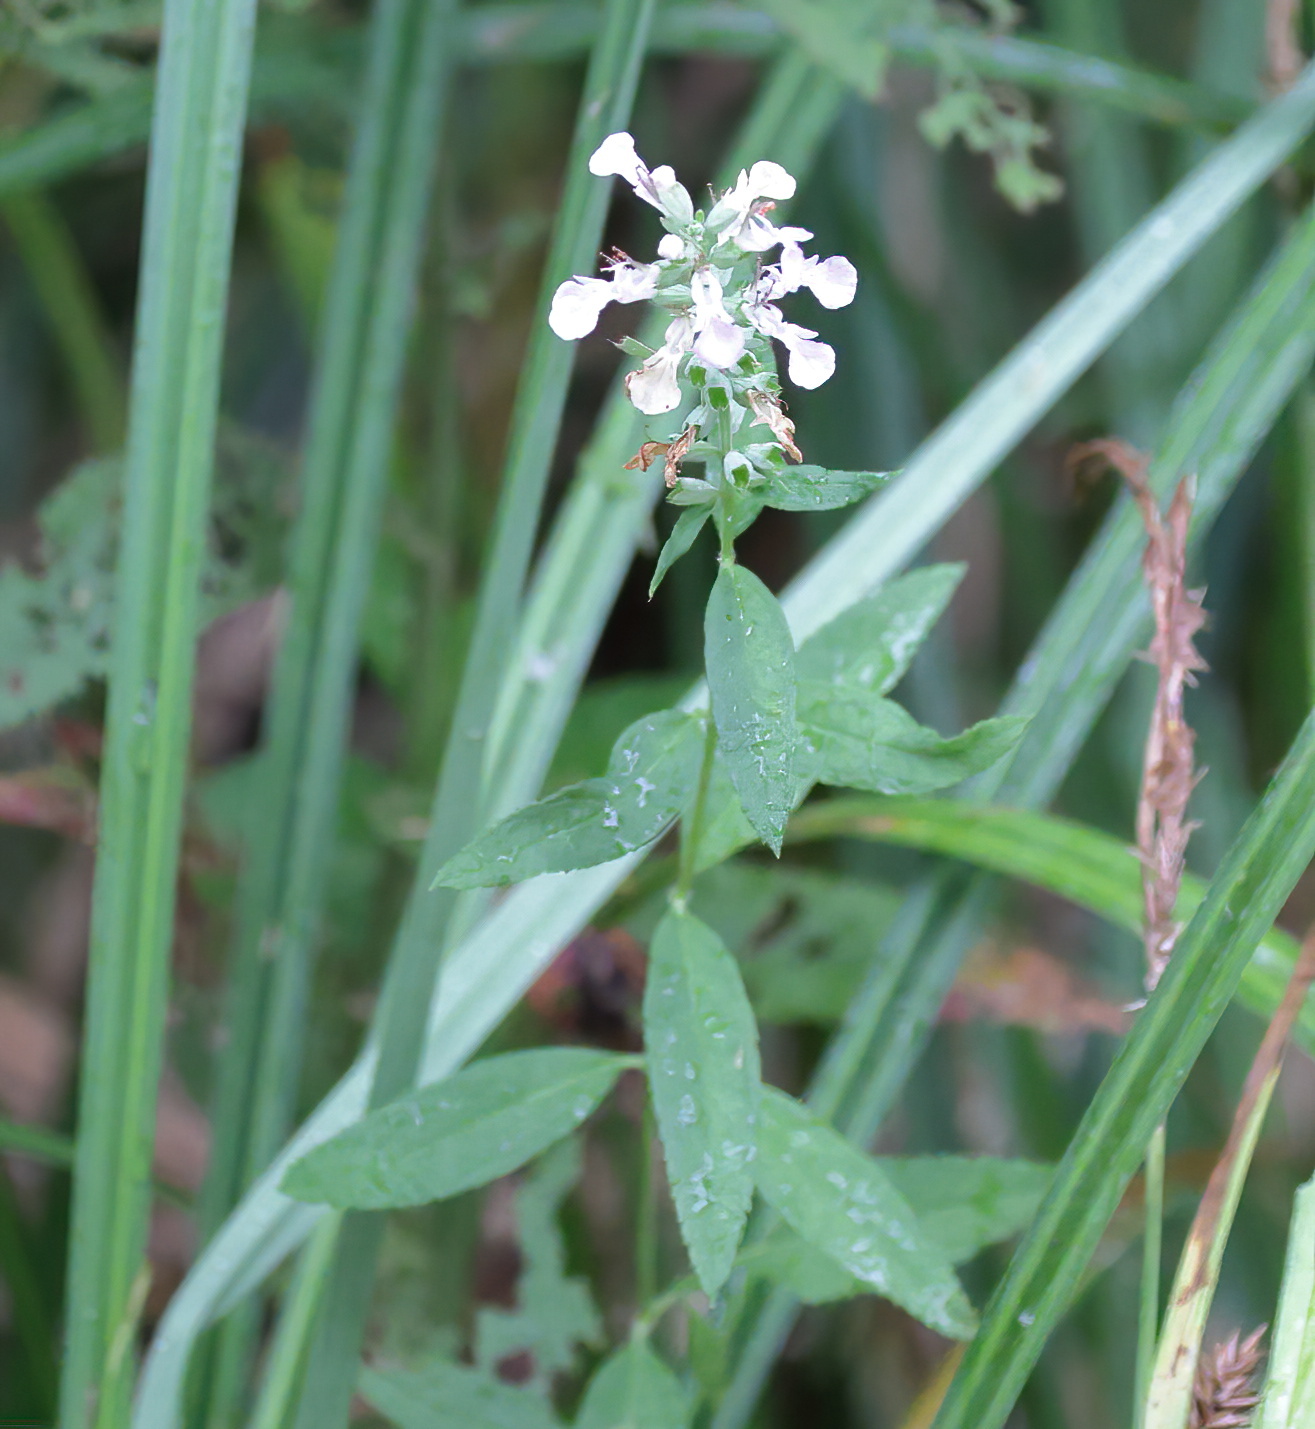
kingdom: Plantae
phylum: Tracheophyta
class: Magnoliopsida
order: Lamiales
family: Lamiaceae
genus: Teucrium
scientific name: Teucrium canadense
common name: American germander
